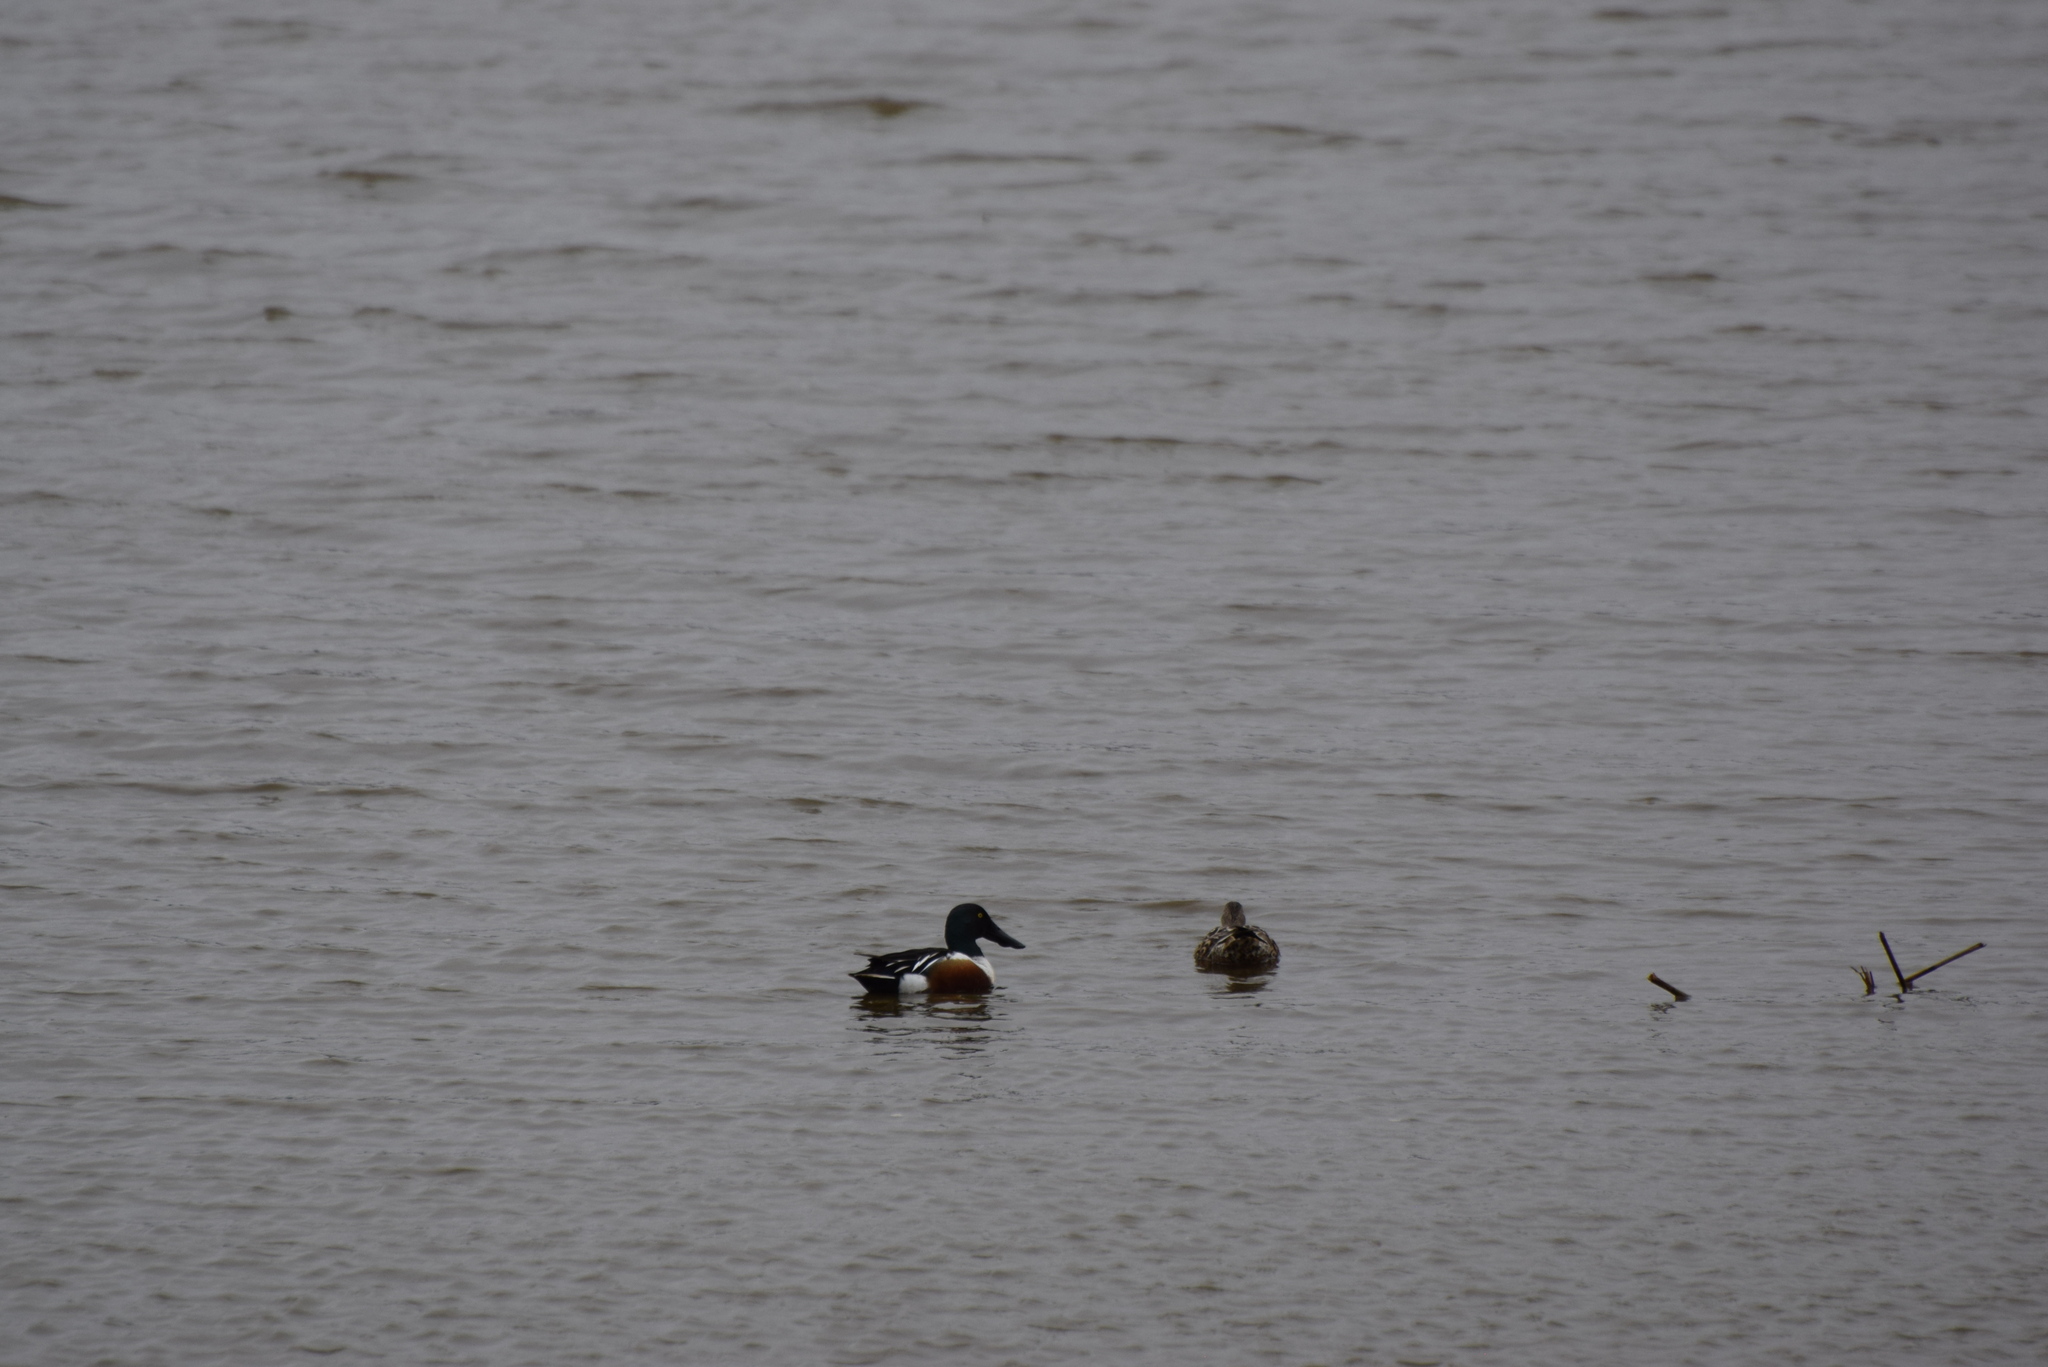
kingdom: Animalia
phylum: Chordata
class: Aves
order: Anseriformes
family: Anatidae
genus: Spatula
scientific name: Spatula clypeata
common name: Northern shoveler
